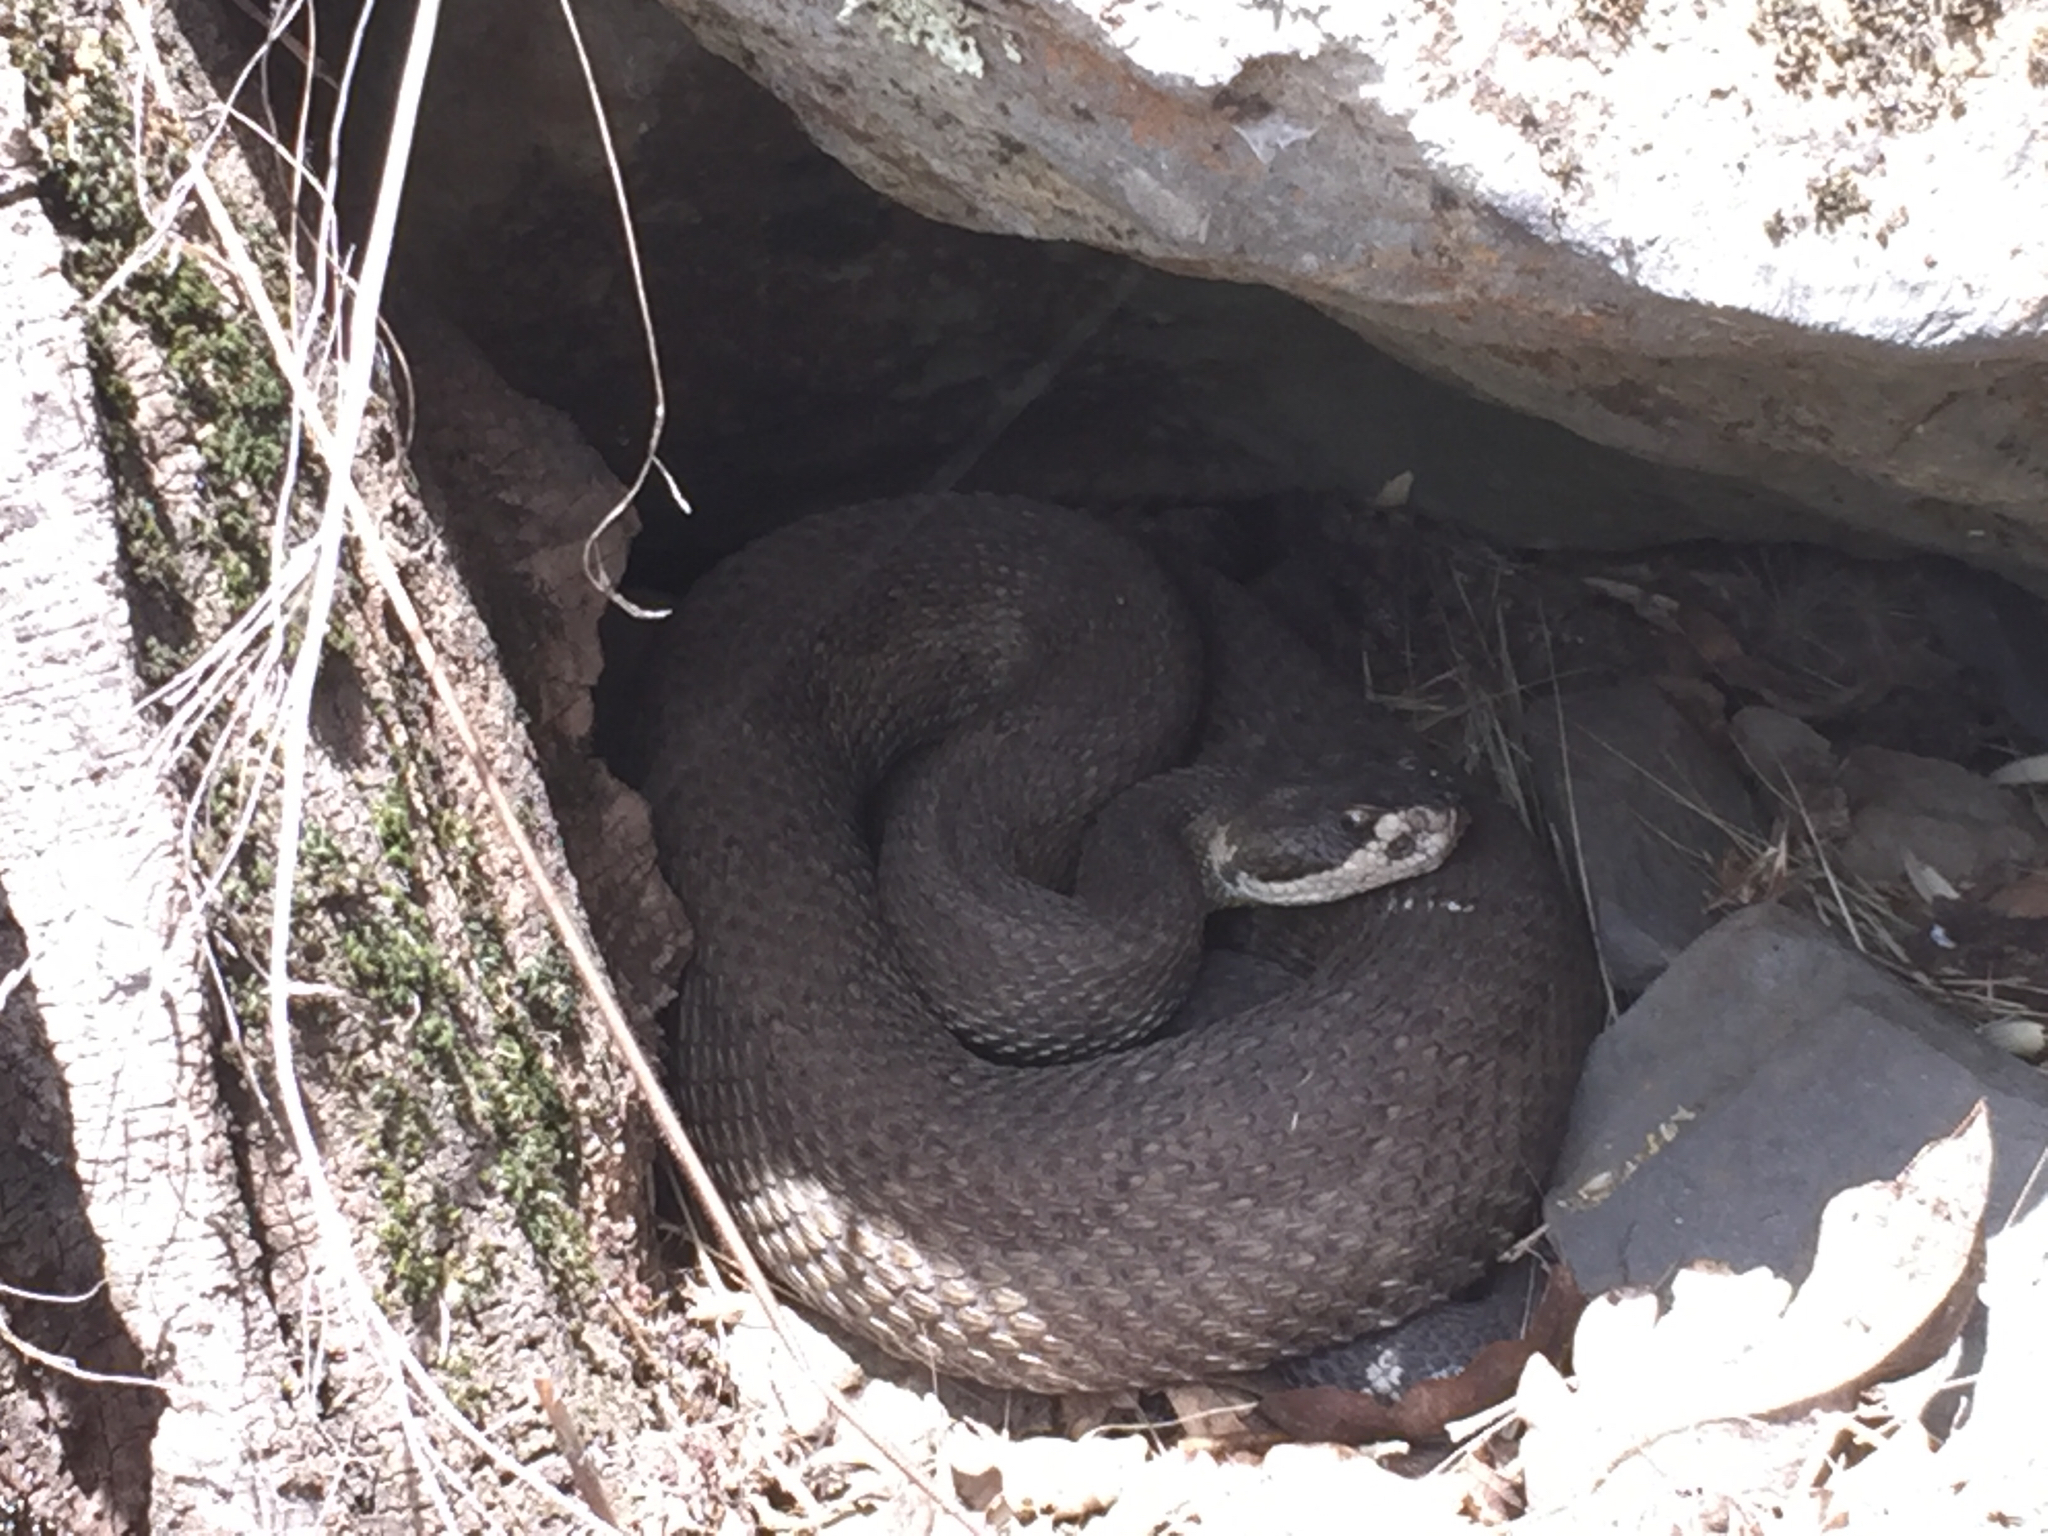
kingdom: Animalia
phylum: Chordata
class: Squamata
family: Viperidae
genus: Crotalus
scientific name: Crotalus oreganus
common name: Abyssus
